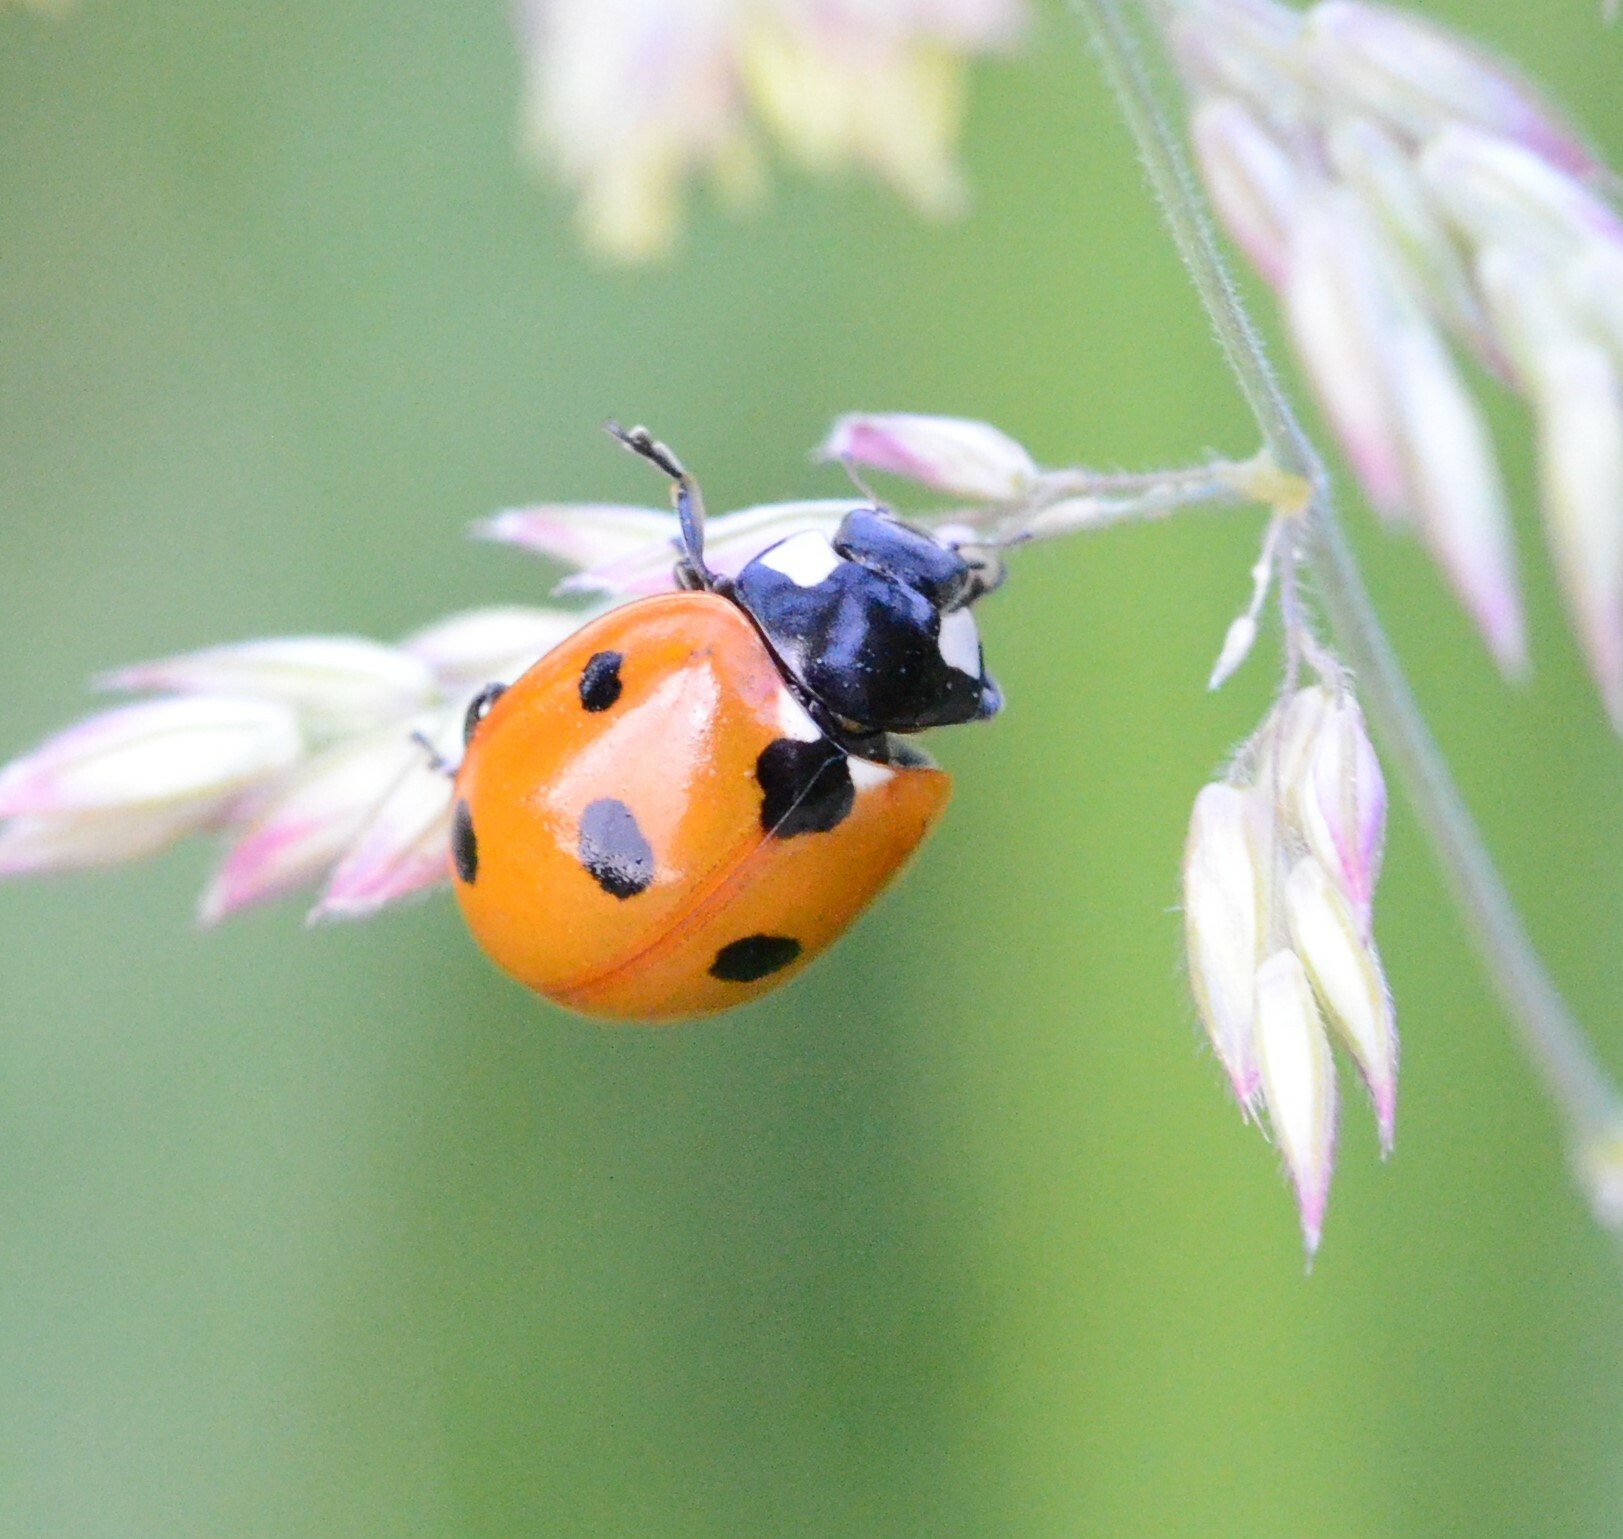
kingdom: Animalia
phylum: Arthropoda
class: Insecta
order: Coleoptera
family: Coccinellidae
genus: Coccinella
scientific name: Coccinella septempunctata
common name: Sevenspotted lady beetle
